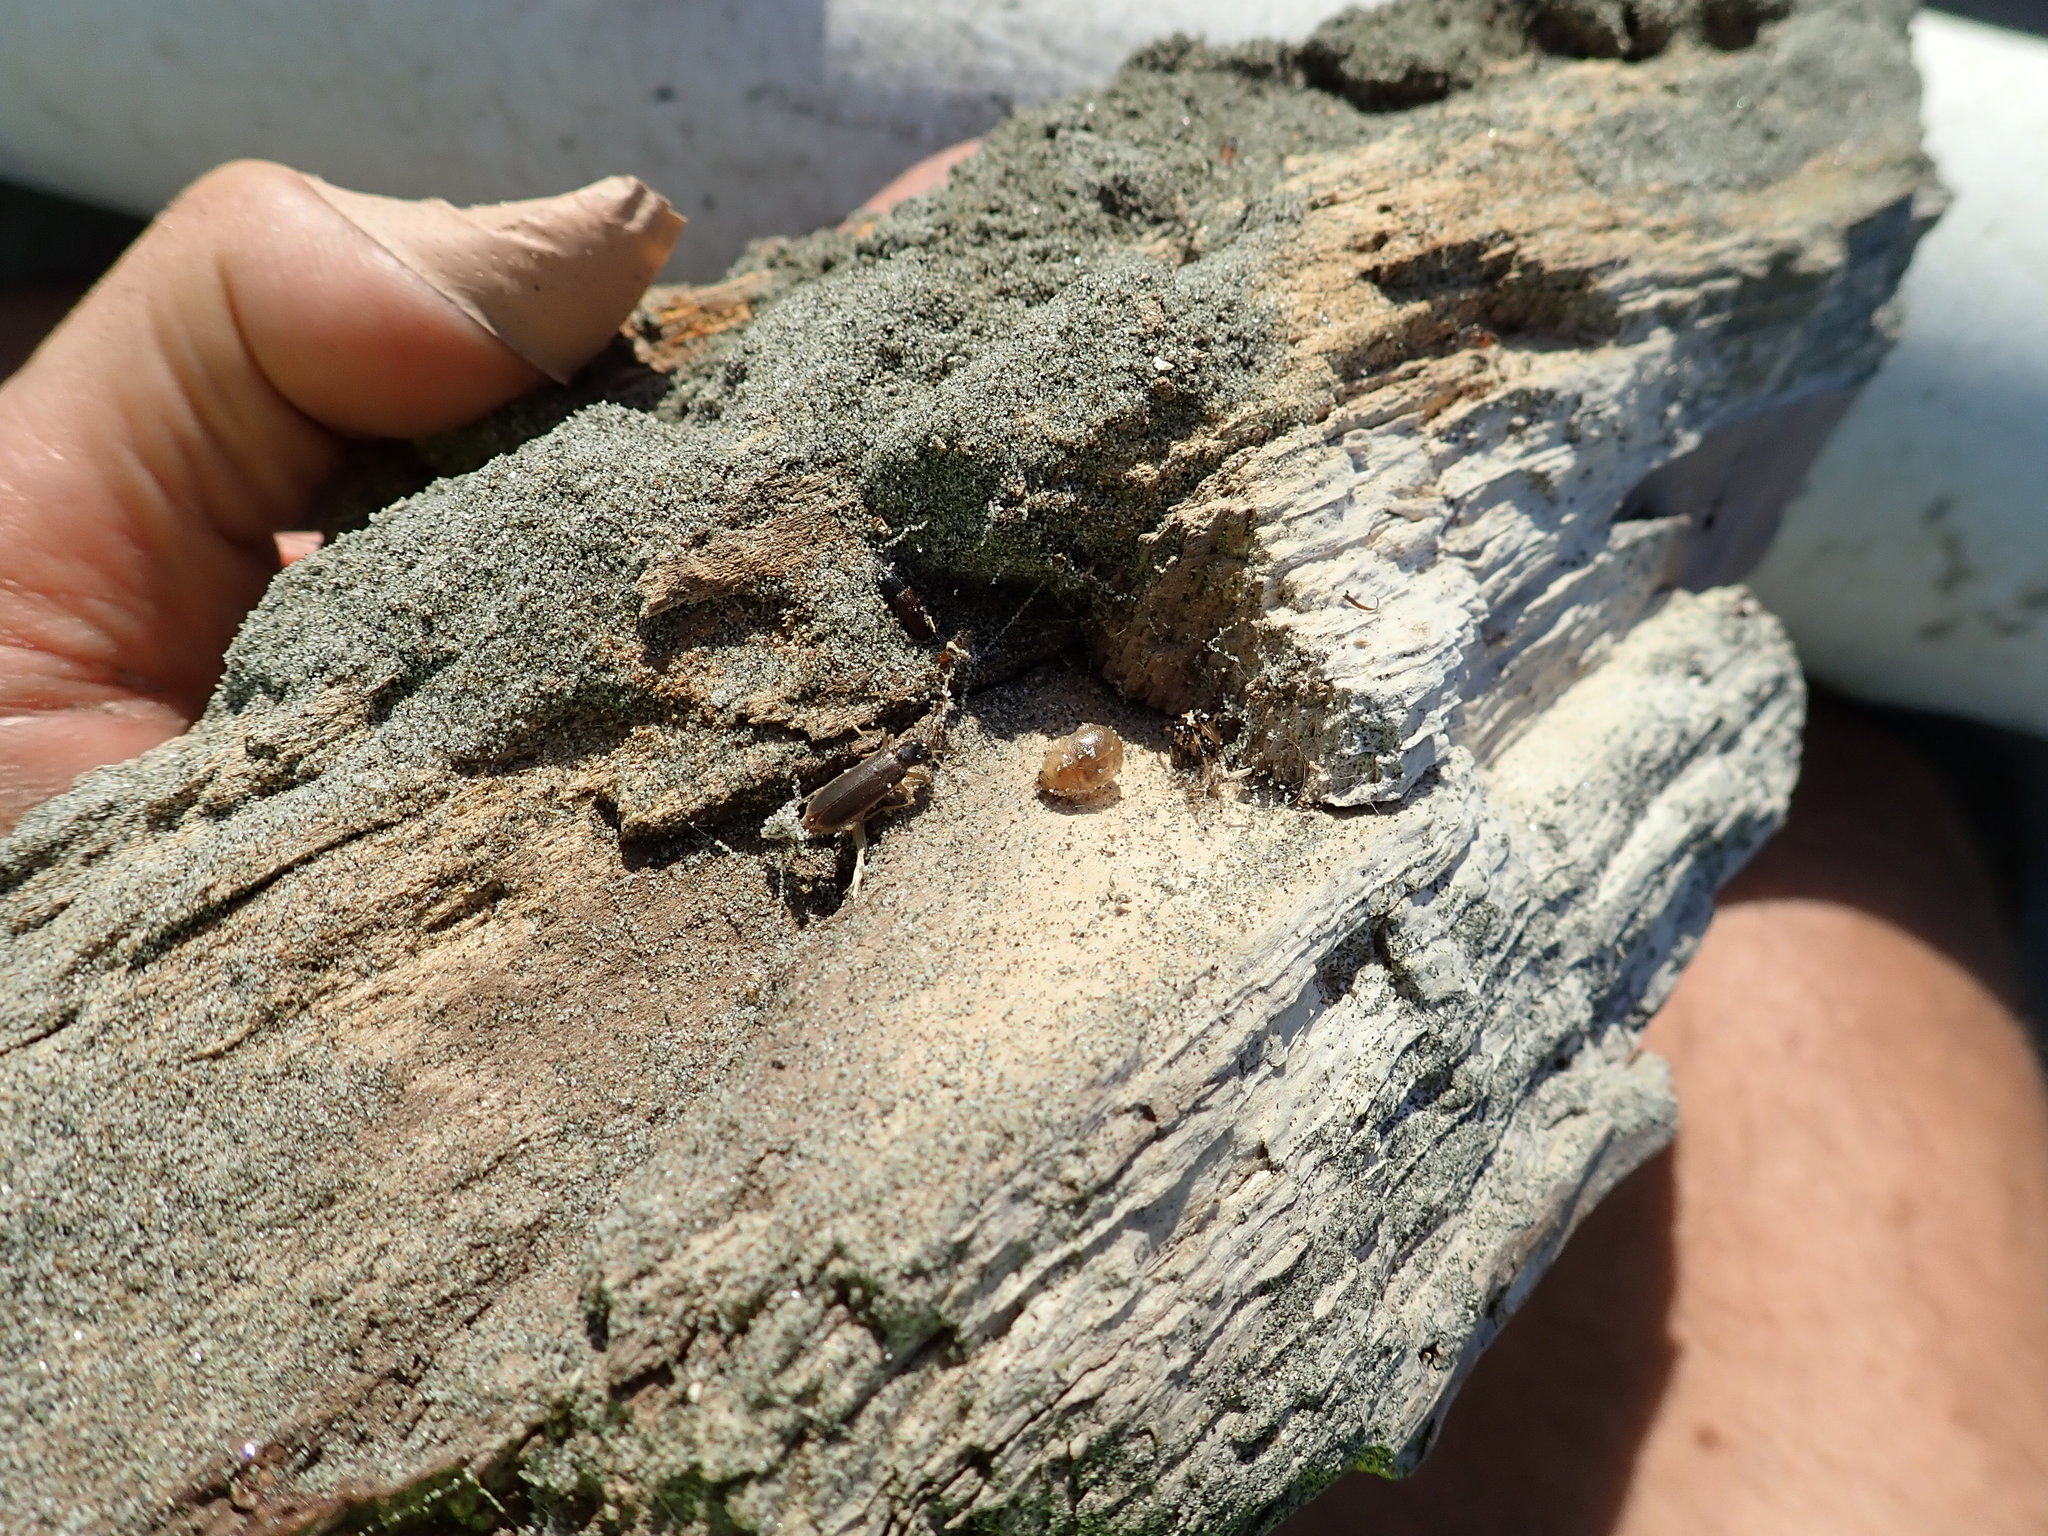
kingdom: Animalia
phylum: Arthropoda
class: Arachnida
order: Araneae
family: Theridiidae
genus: Latrodectus
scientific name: Latrodectus katipo
